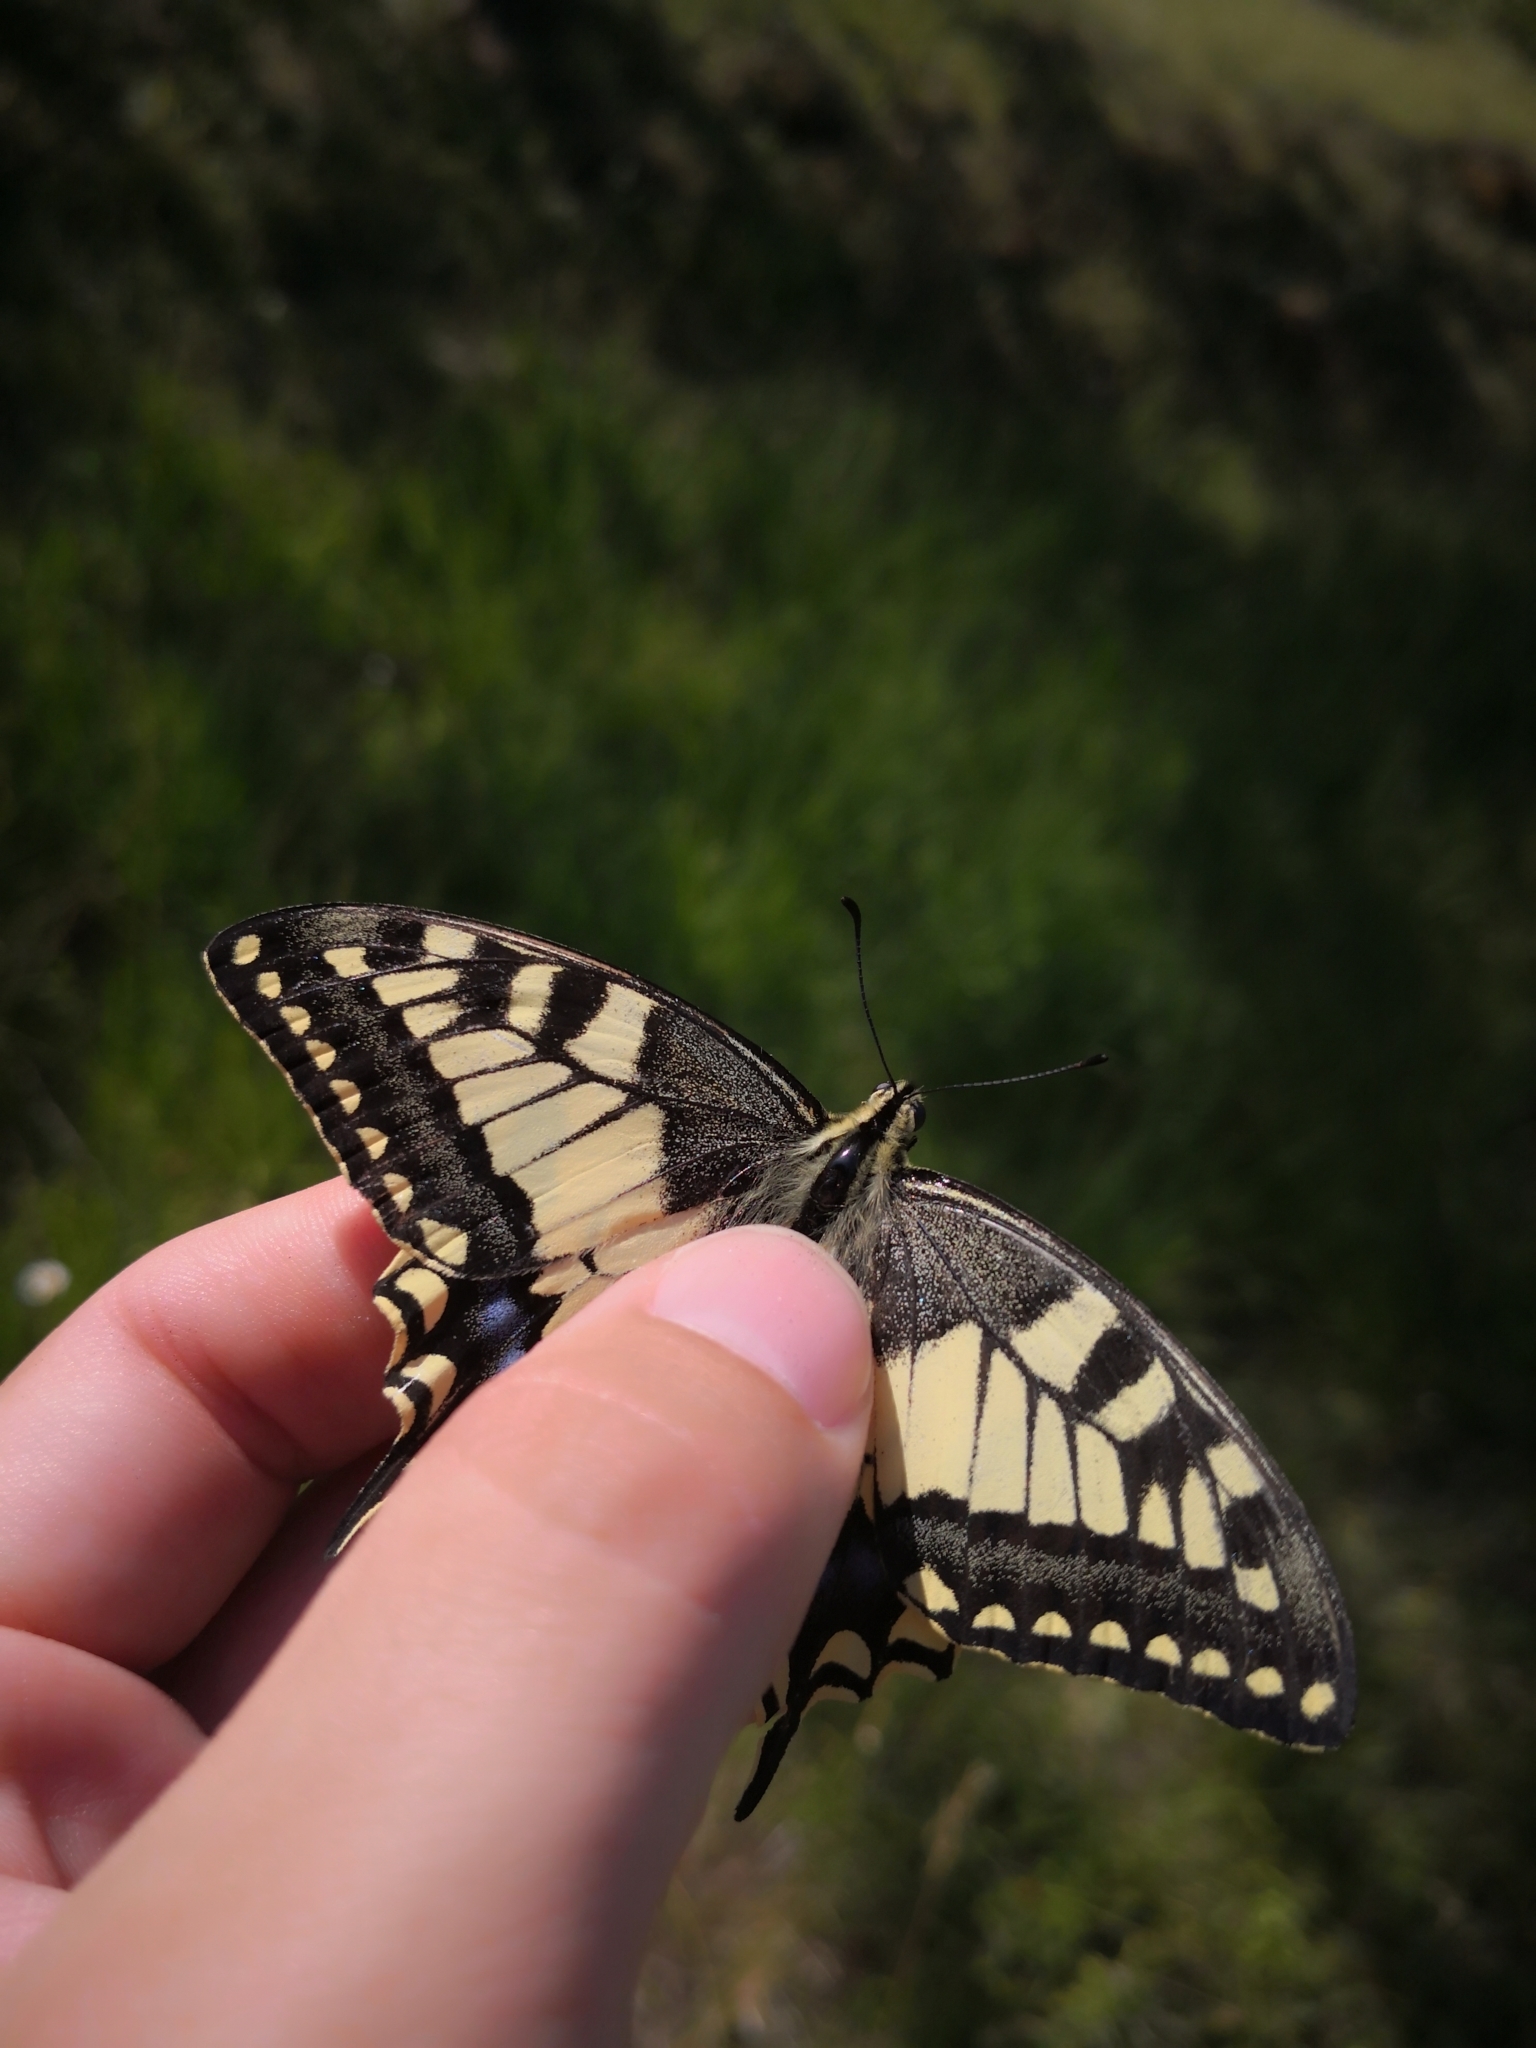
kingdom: Animalia
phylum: Arthropoda
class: Insecta
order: Lepidoptera
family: Papilionidae
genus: Papilio
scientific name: Papilio machaon
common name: Swallowtail
